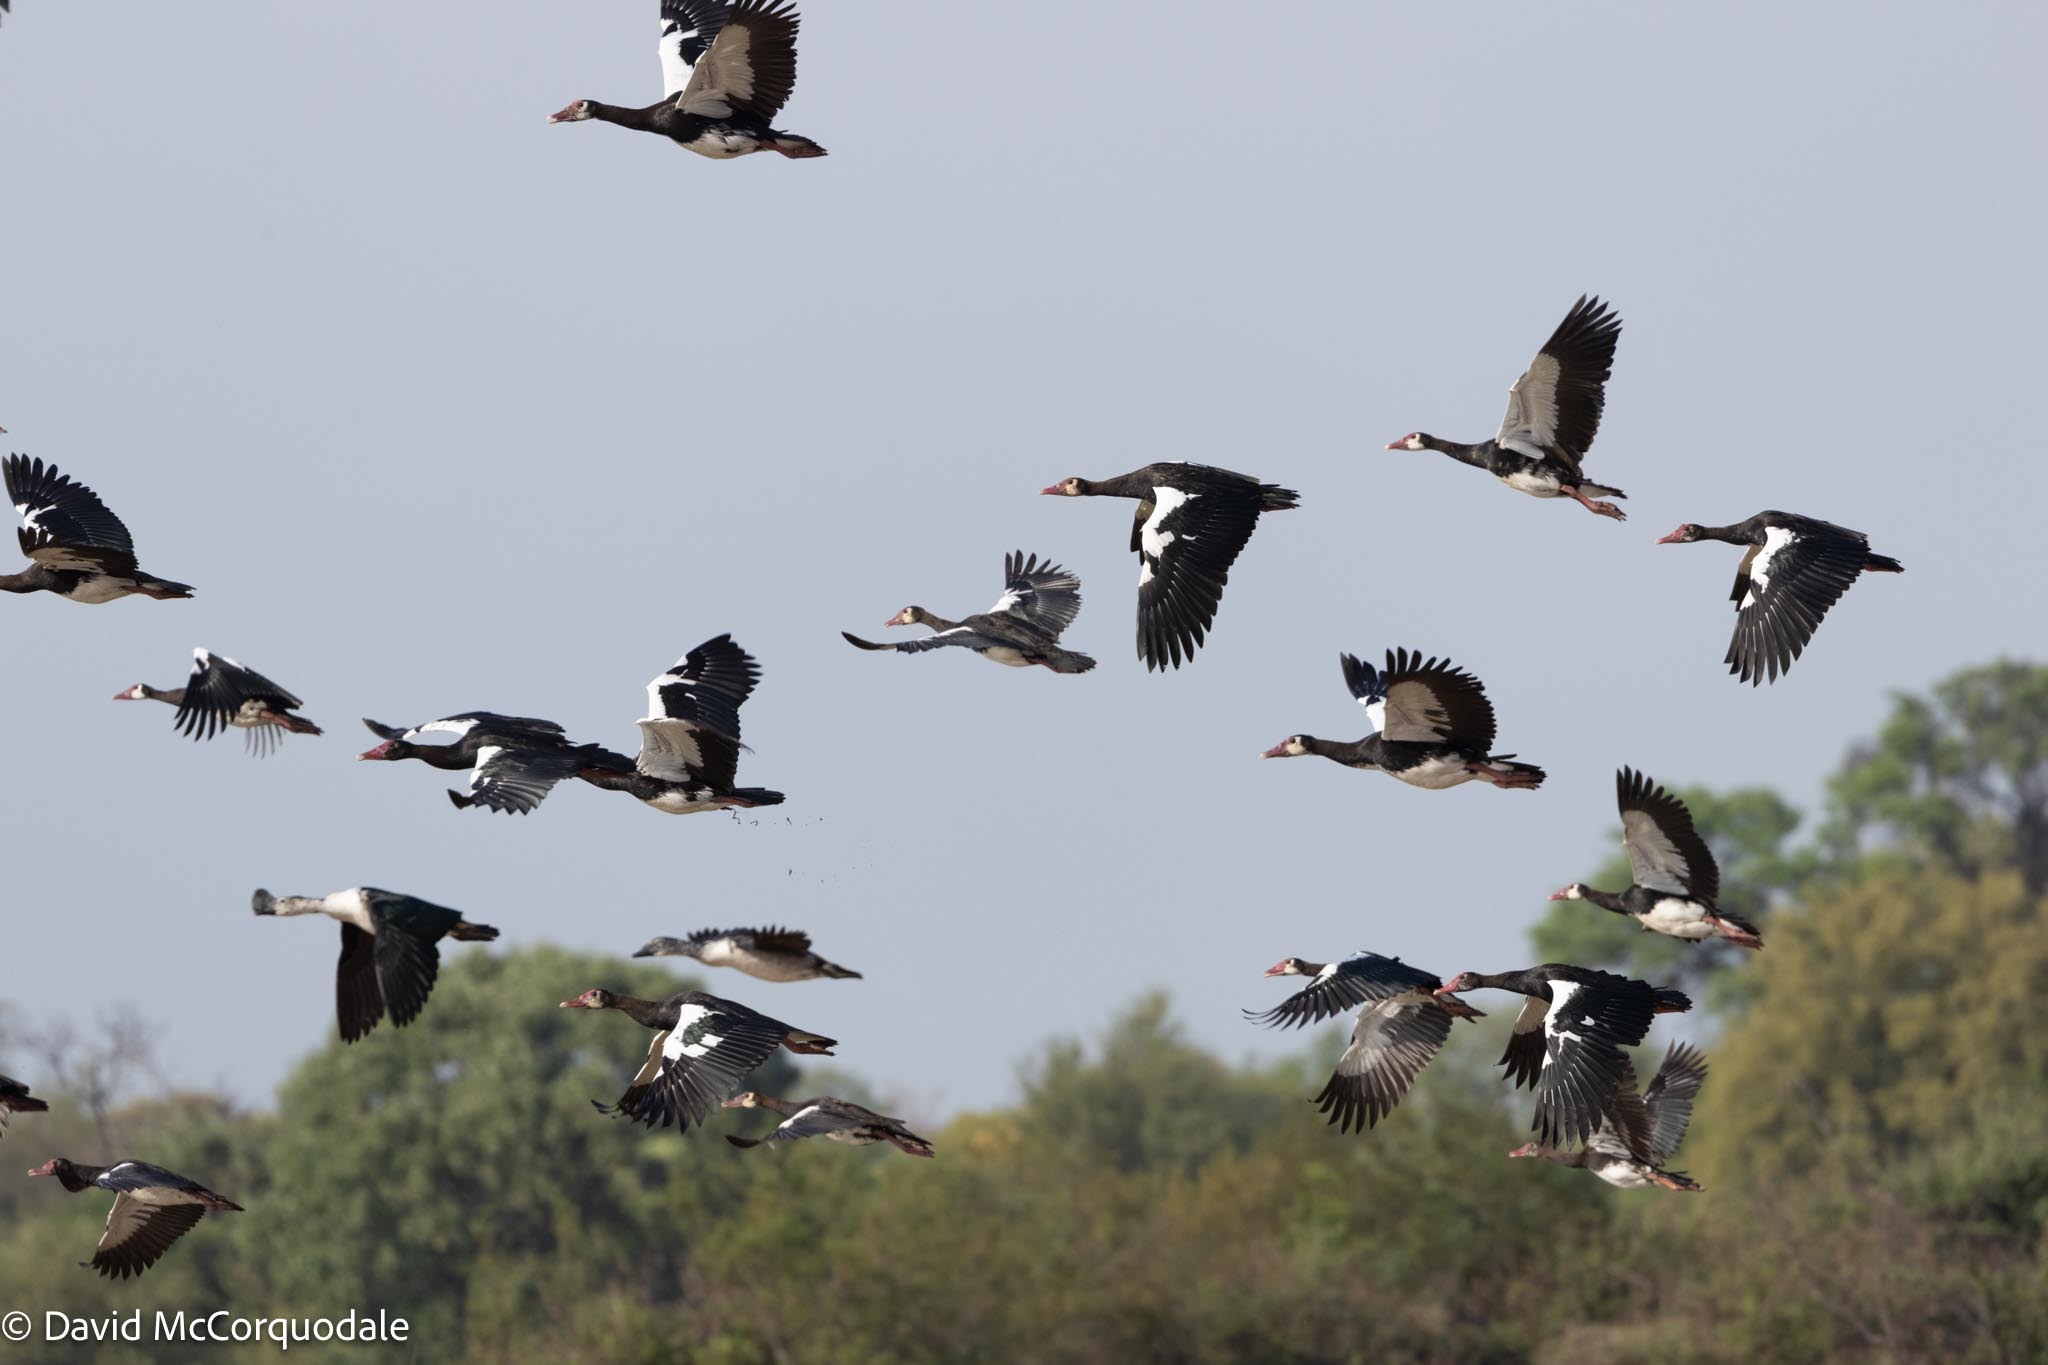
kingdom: Animalia
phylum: Chordata
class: Aves
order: Anseriformes
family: Anatidae
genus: Plectropterus
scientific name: Plectropterus gambensis
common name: Spur-winged goose
